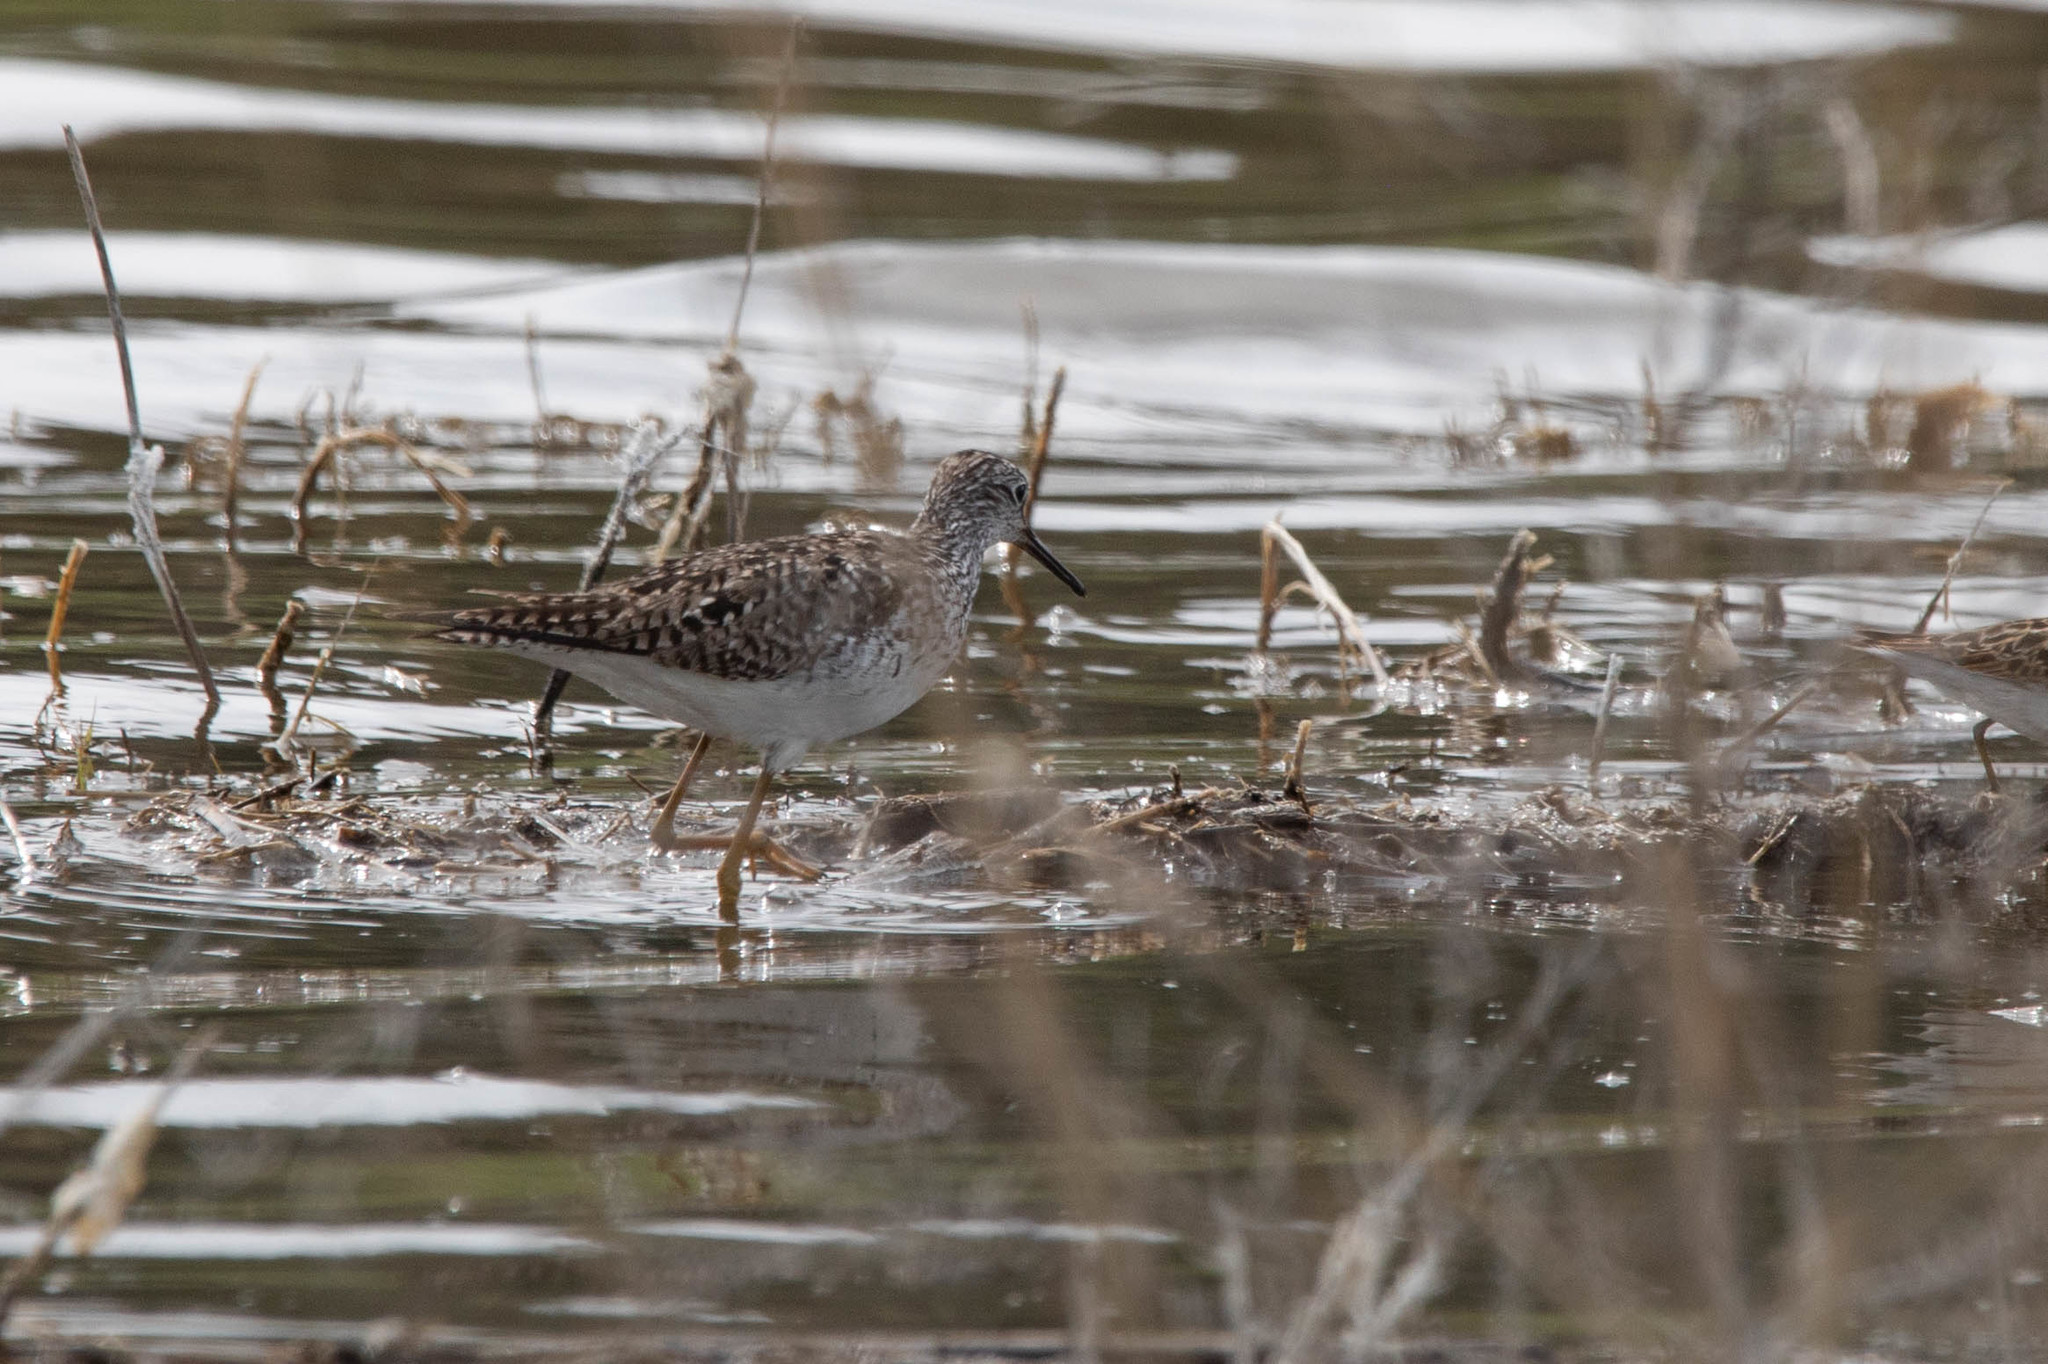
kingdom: Animalia
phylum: Chordata
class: Aves
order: Charadriiformes
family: Scolopacidae
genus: Tringa
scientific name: Tringa flavipes
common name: Lesser yellowlegs
